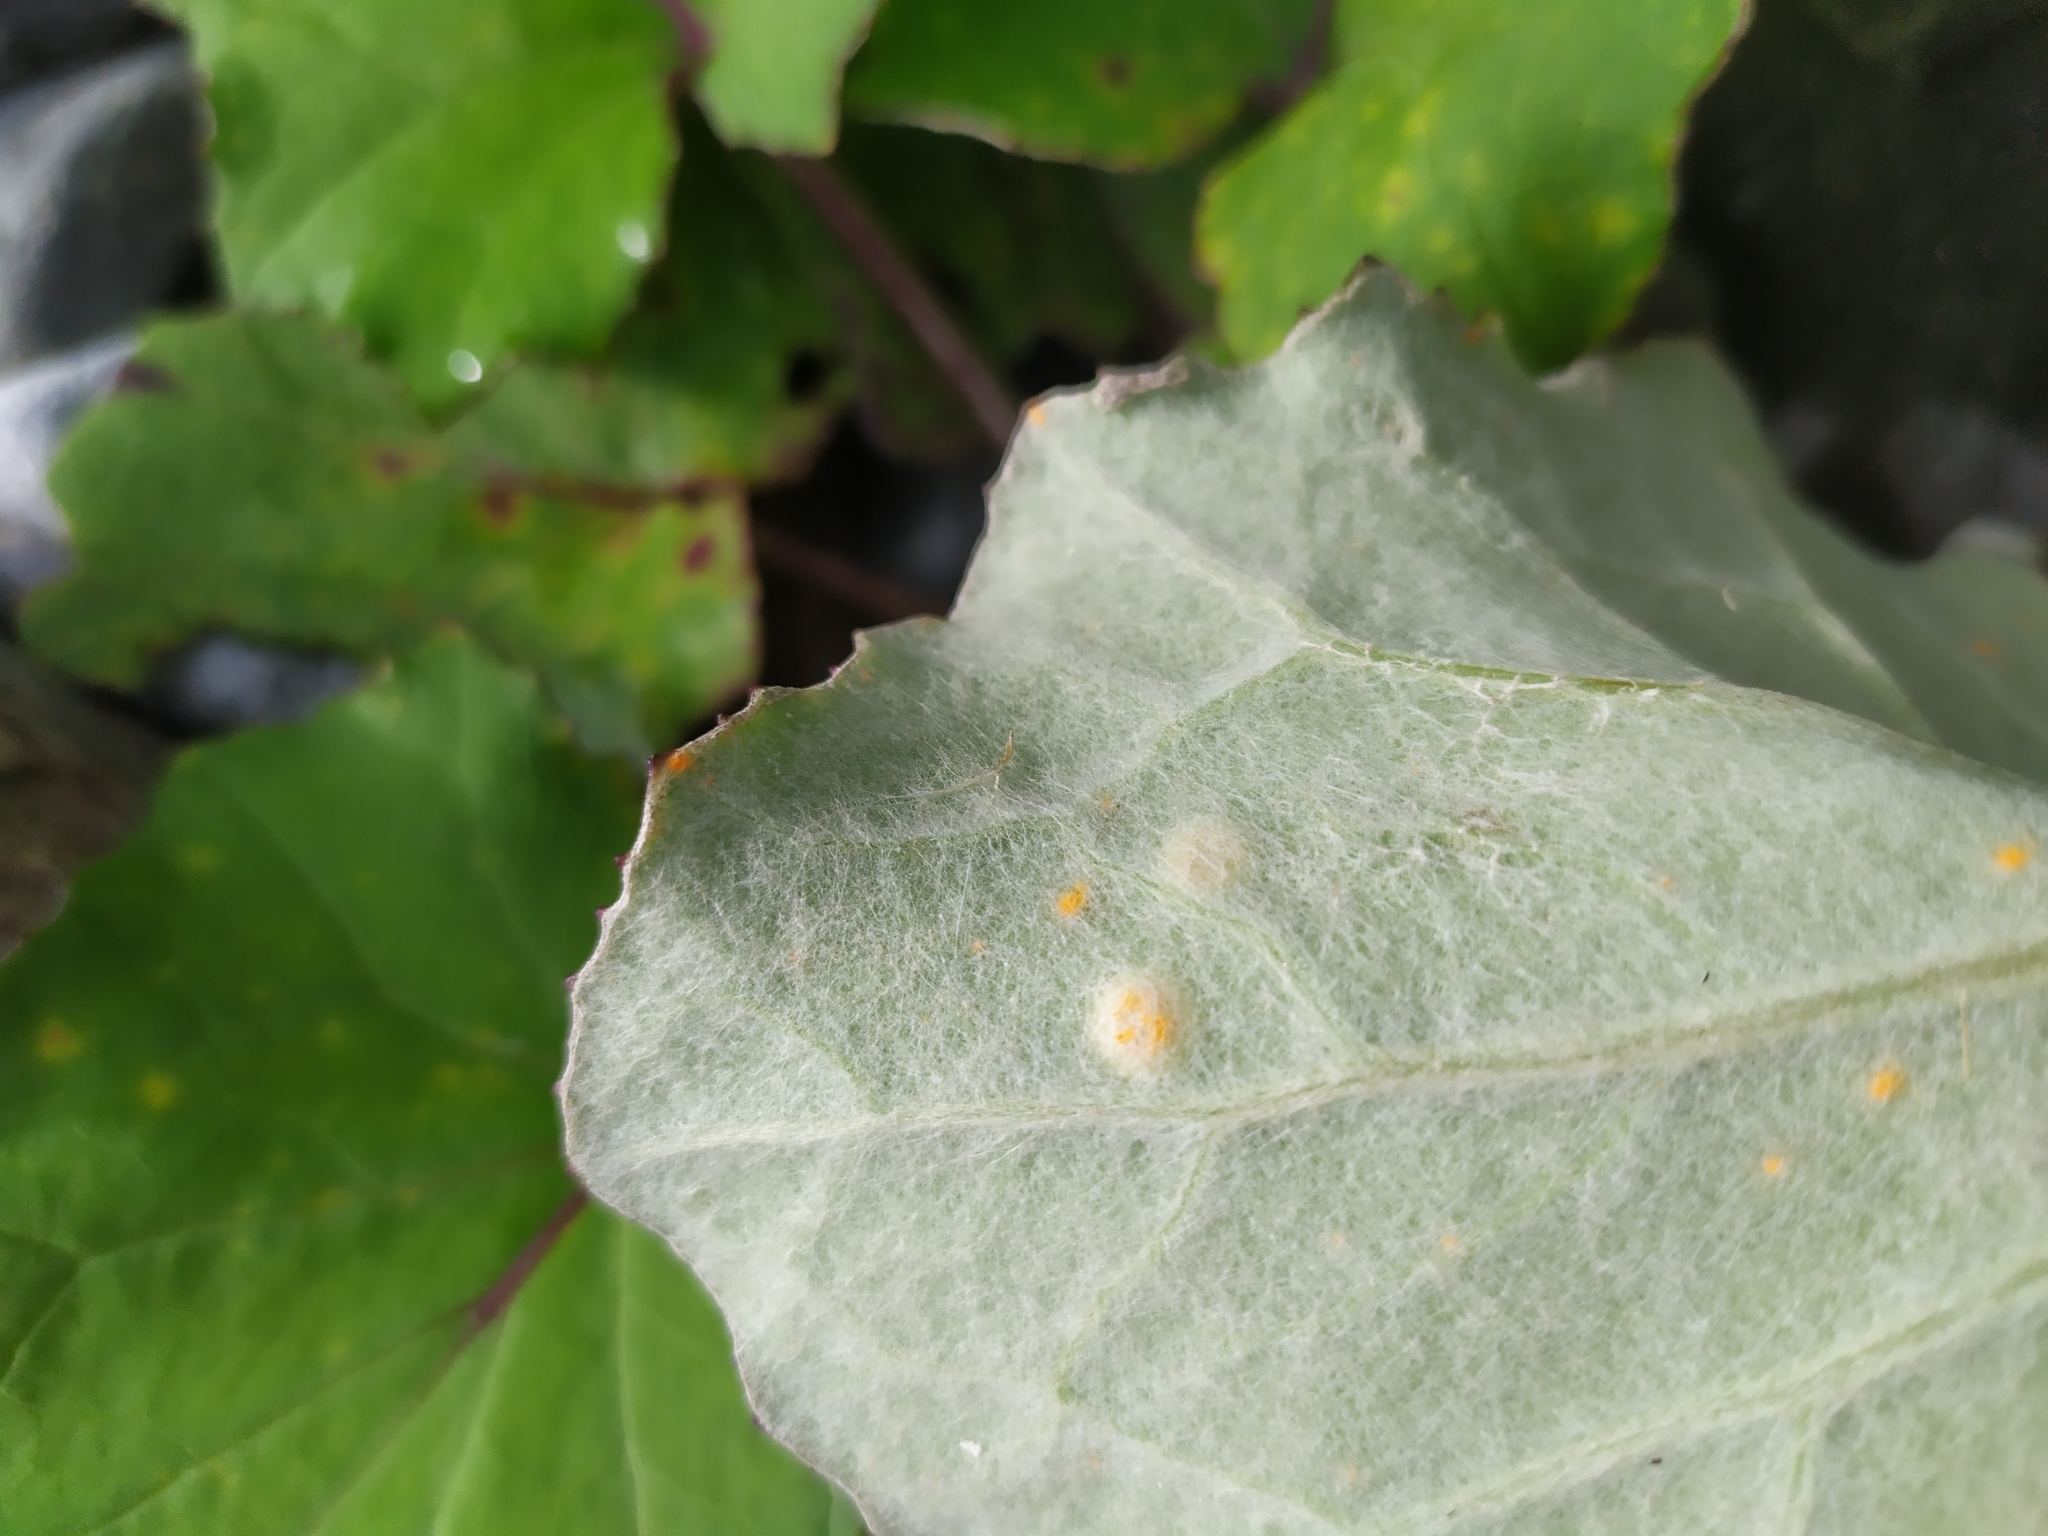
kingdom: Fungi
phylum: Basidiomycota
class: Pucciniomycetes
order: Pucciniales
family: Pucciniaceae
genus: Puccinia
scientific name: Puccinia poarum
